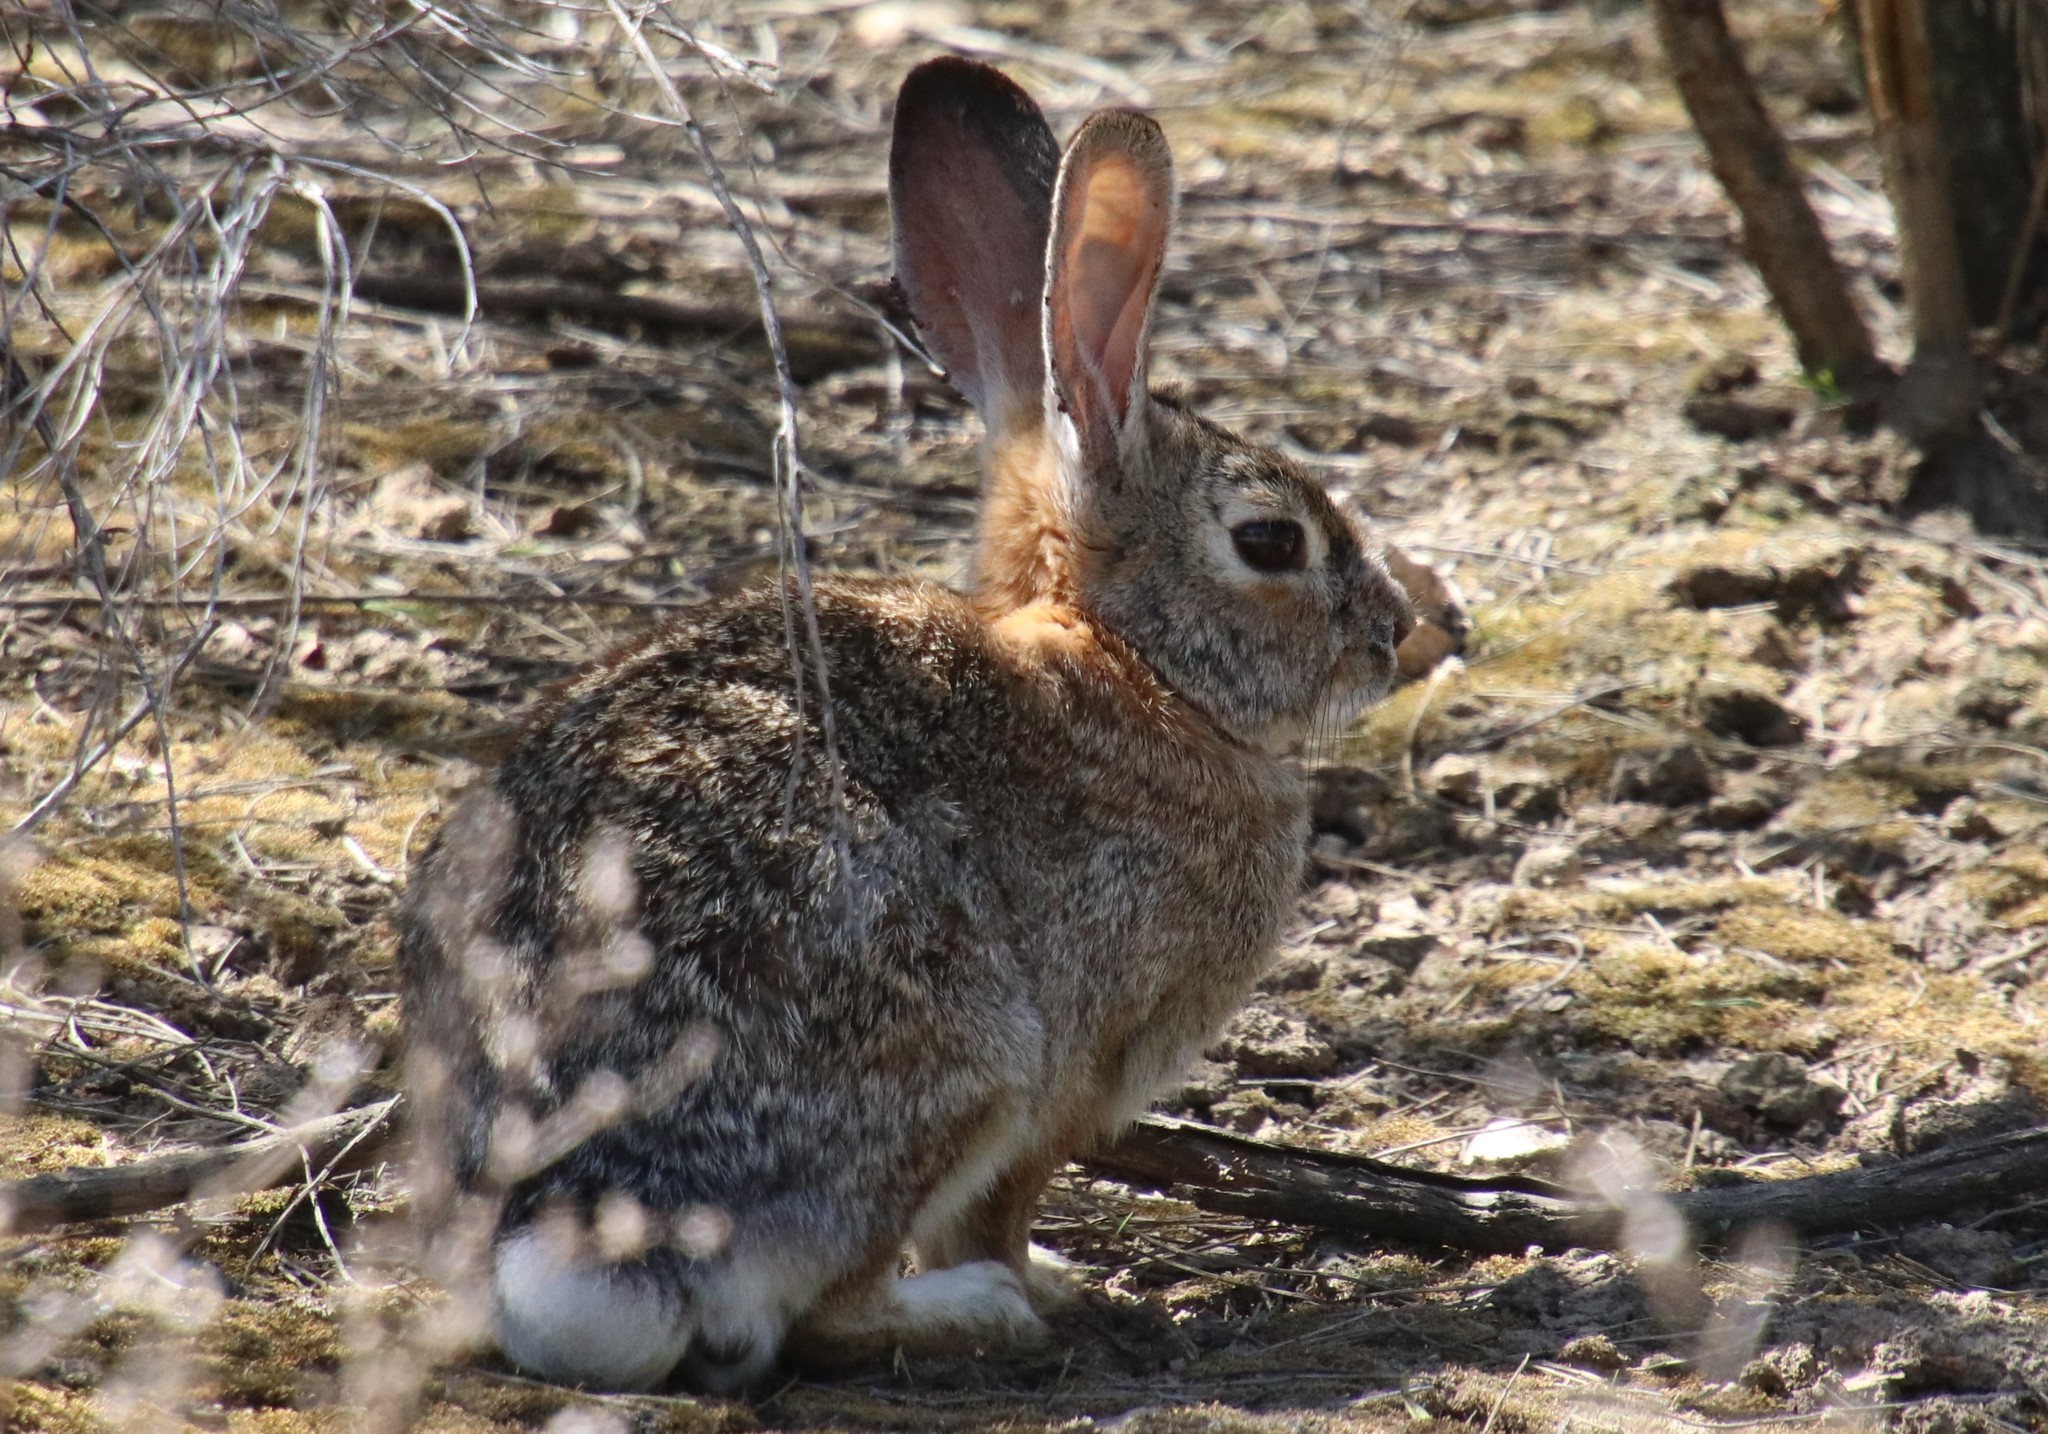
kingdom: Animalia
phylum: Chordata
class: Mammalia
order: Lagomorpha
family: Leporidae
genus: Sylvilagus
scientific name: Sylvilagus audubonii
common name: Desert cottontail
